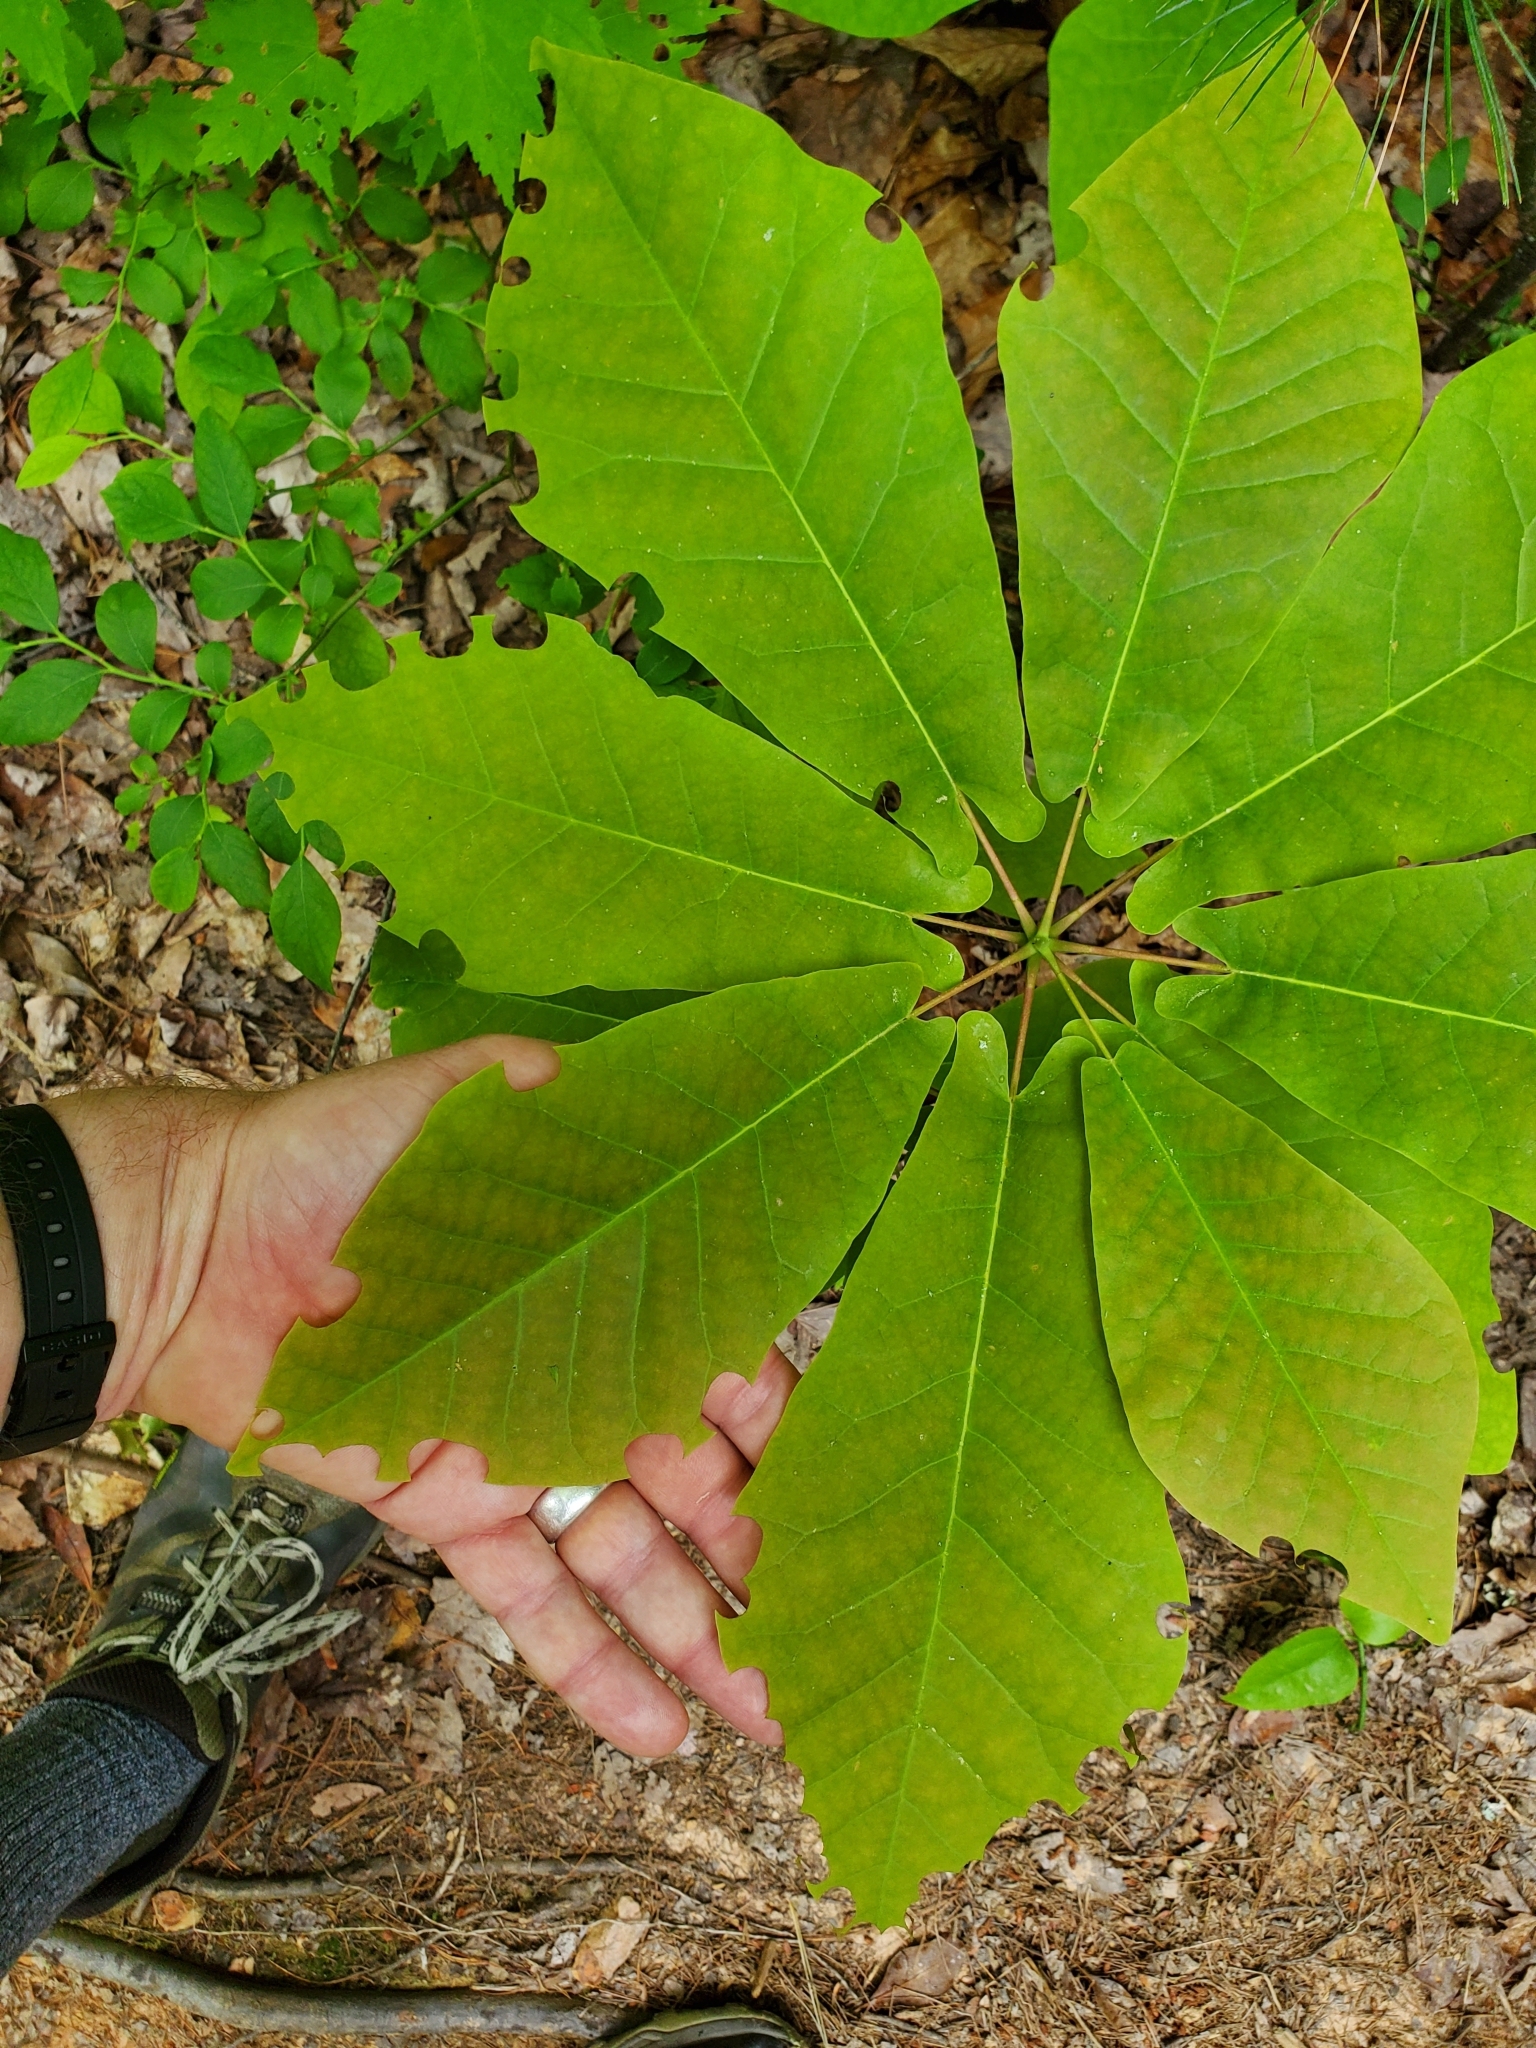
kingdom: Plantae
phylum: Tracheophyta
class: Magnoliopsida
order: Magnoliales
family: Magnoliaceae
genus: Magnolia
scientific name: Magnolia fraseri
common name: Fraser's magnolia
